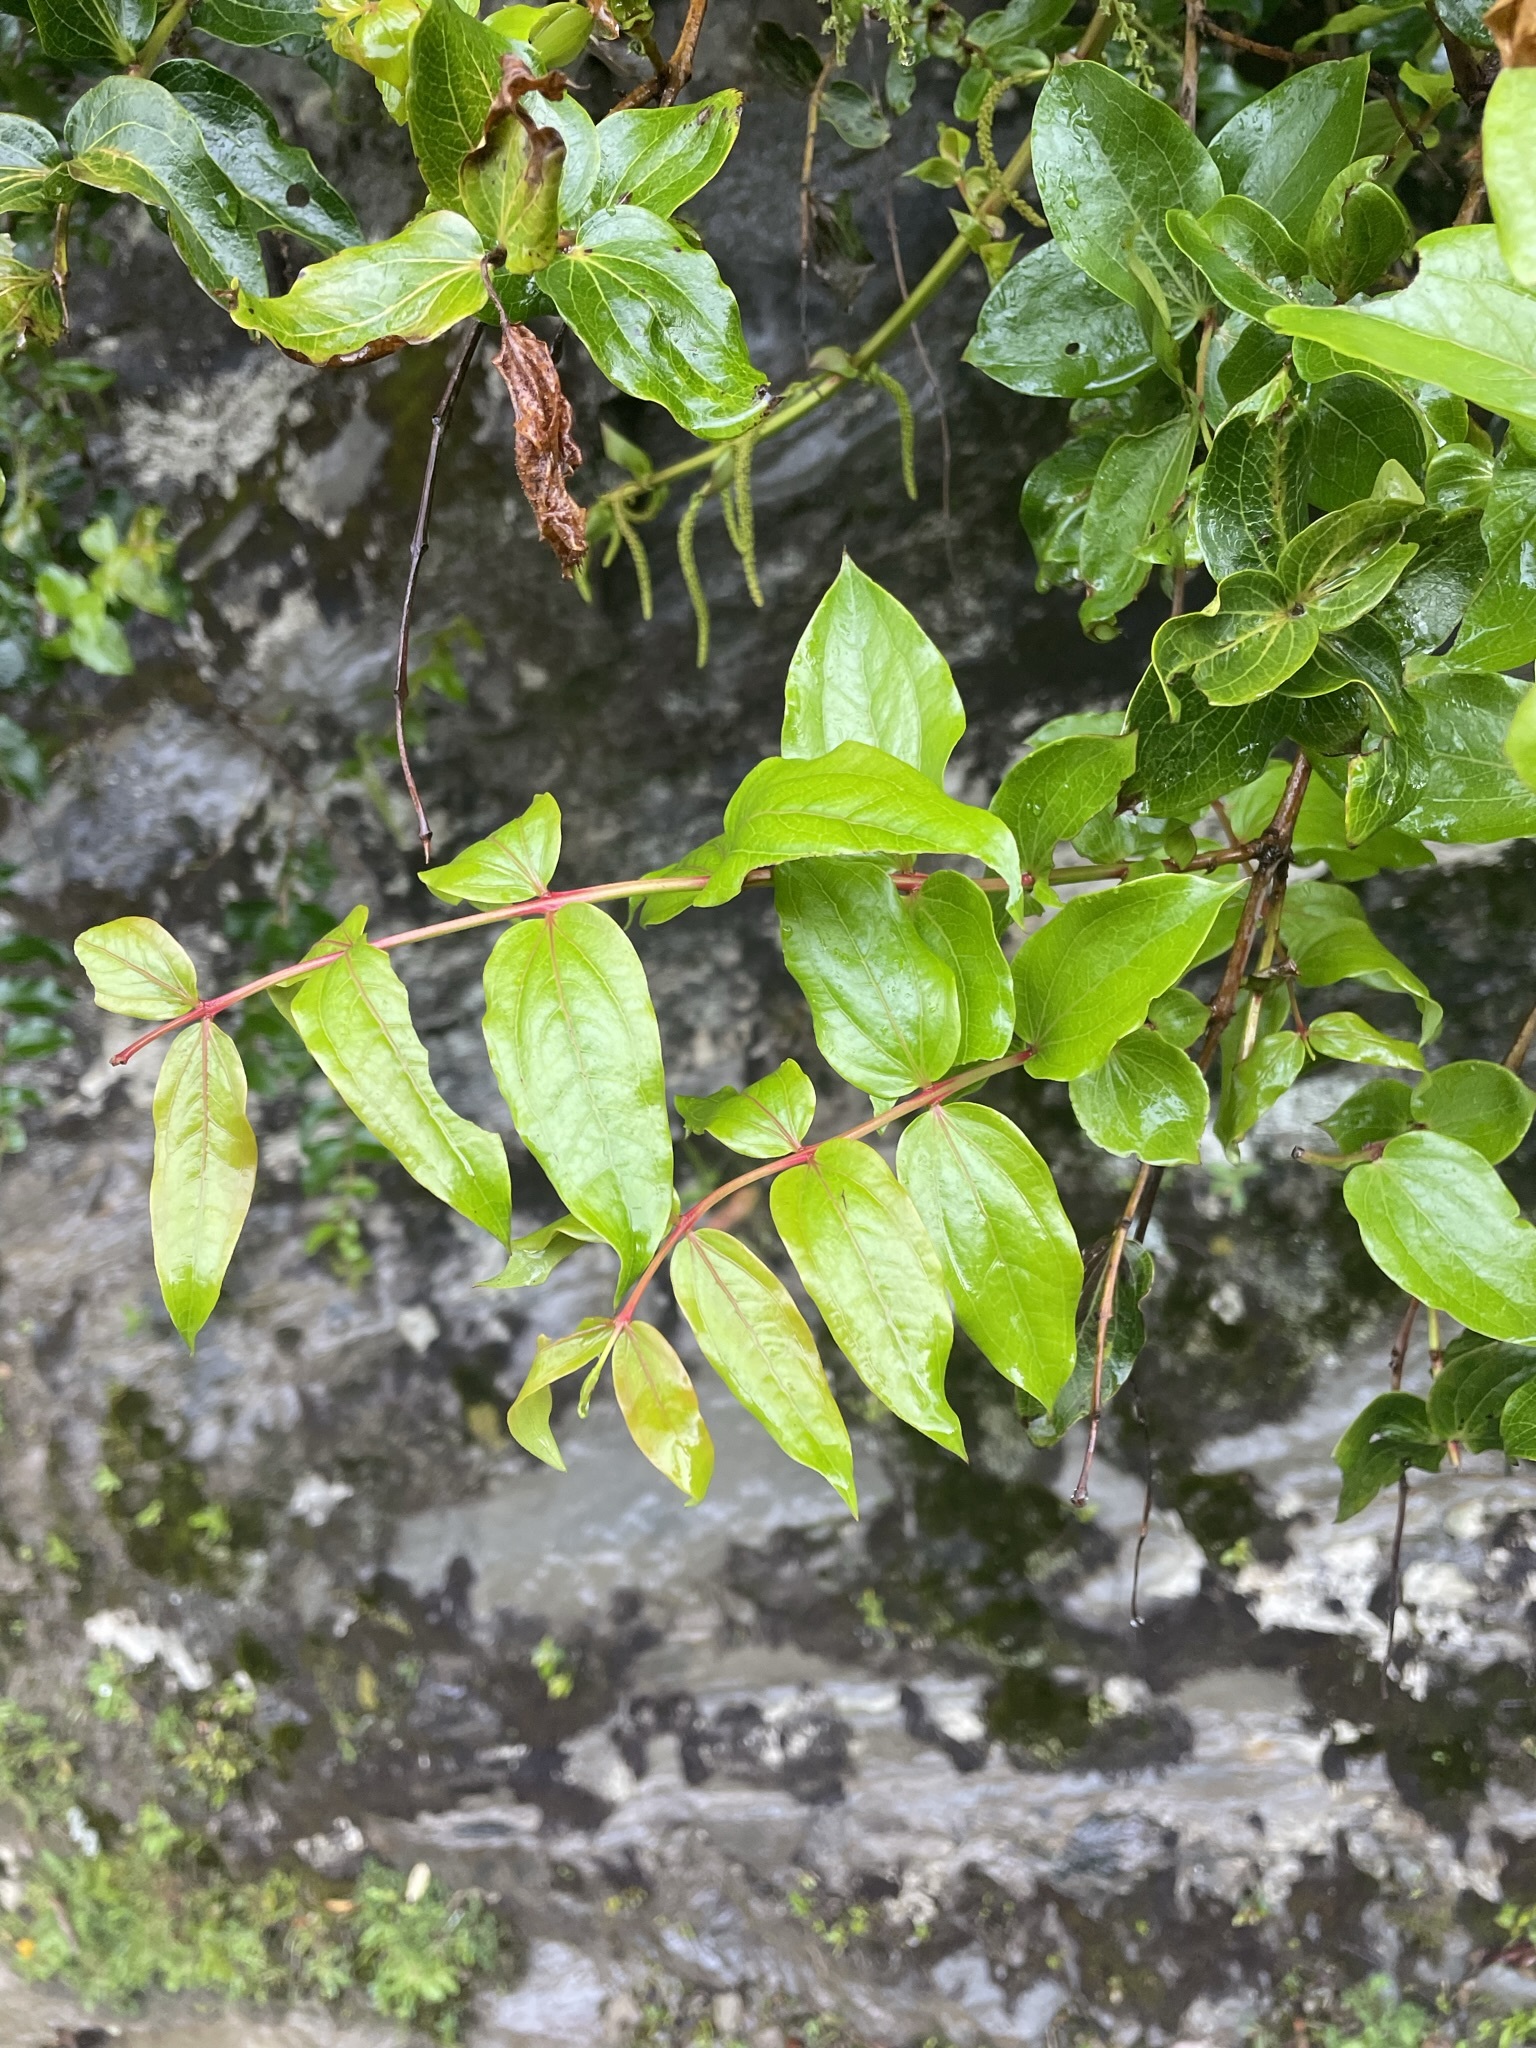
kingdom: Plantae
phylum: Tracheophyta
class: Magnoliopsida
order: Cucurbitales
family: Coriariaceae
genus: Coriaria
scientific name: Coriaria arborea
